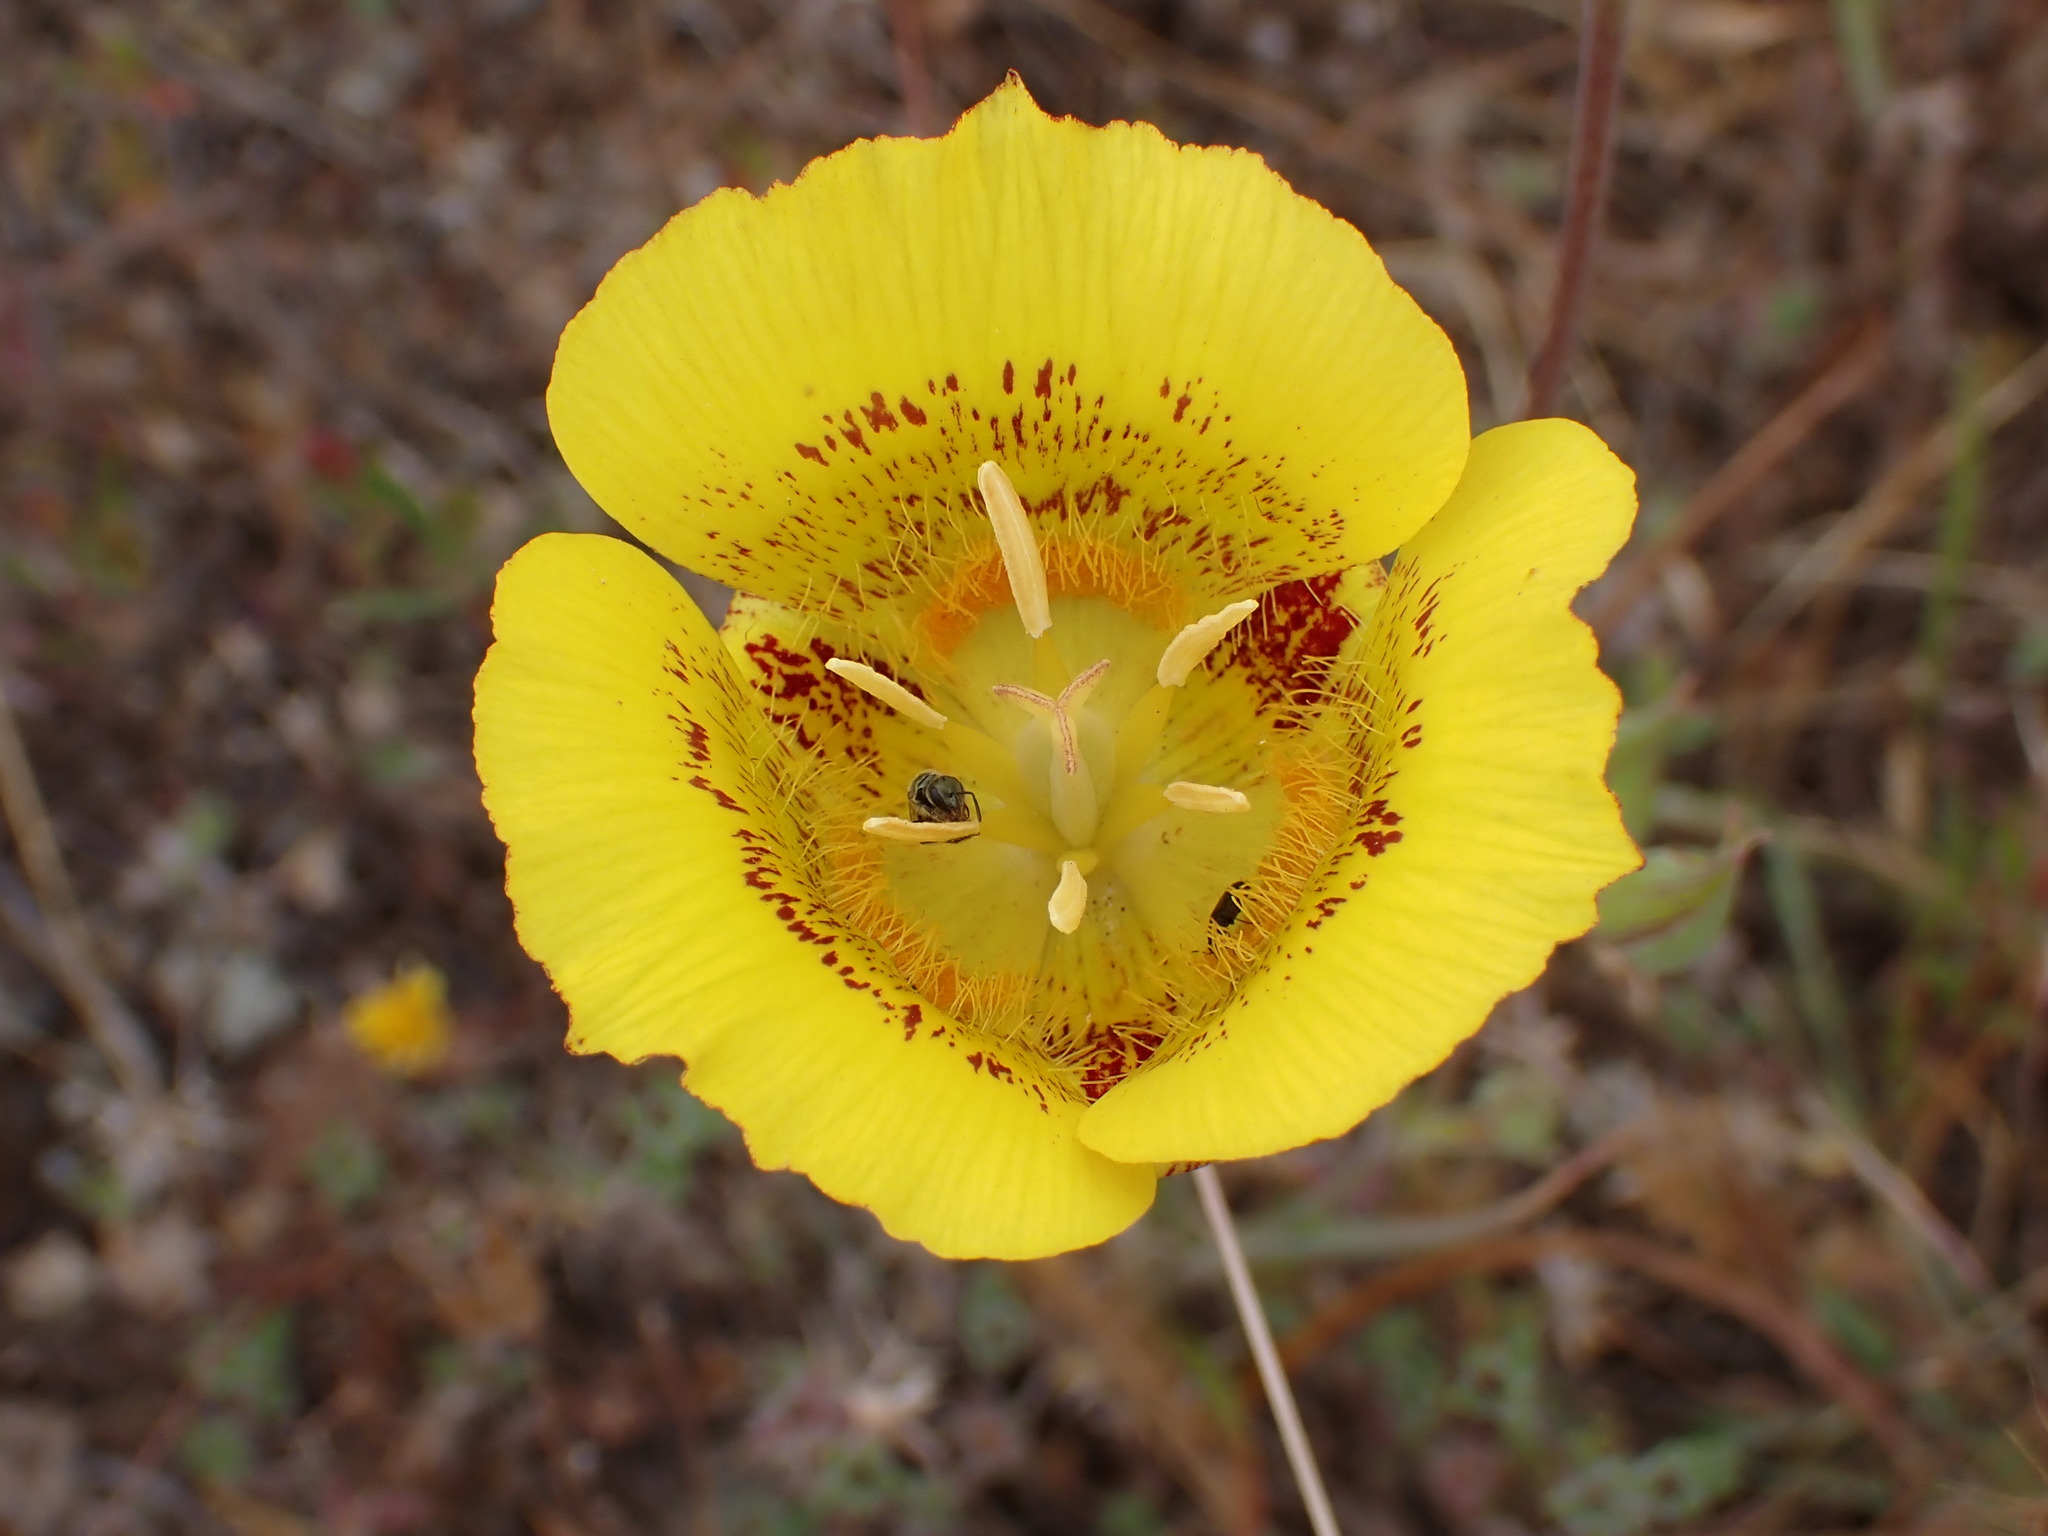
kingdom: Plantae
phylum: Tracheophyta
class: Liliopsida
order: Liliales
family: Liliaceae
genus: Calochortus
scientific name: Calochortus luteus
